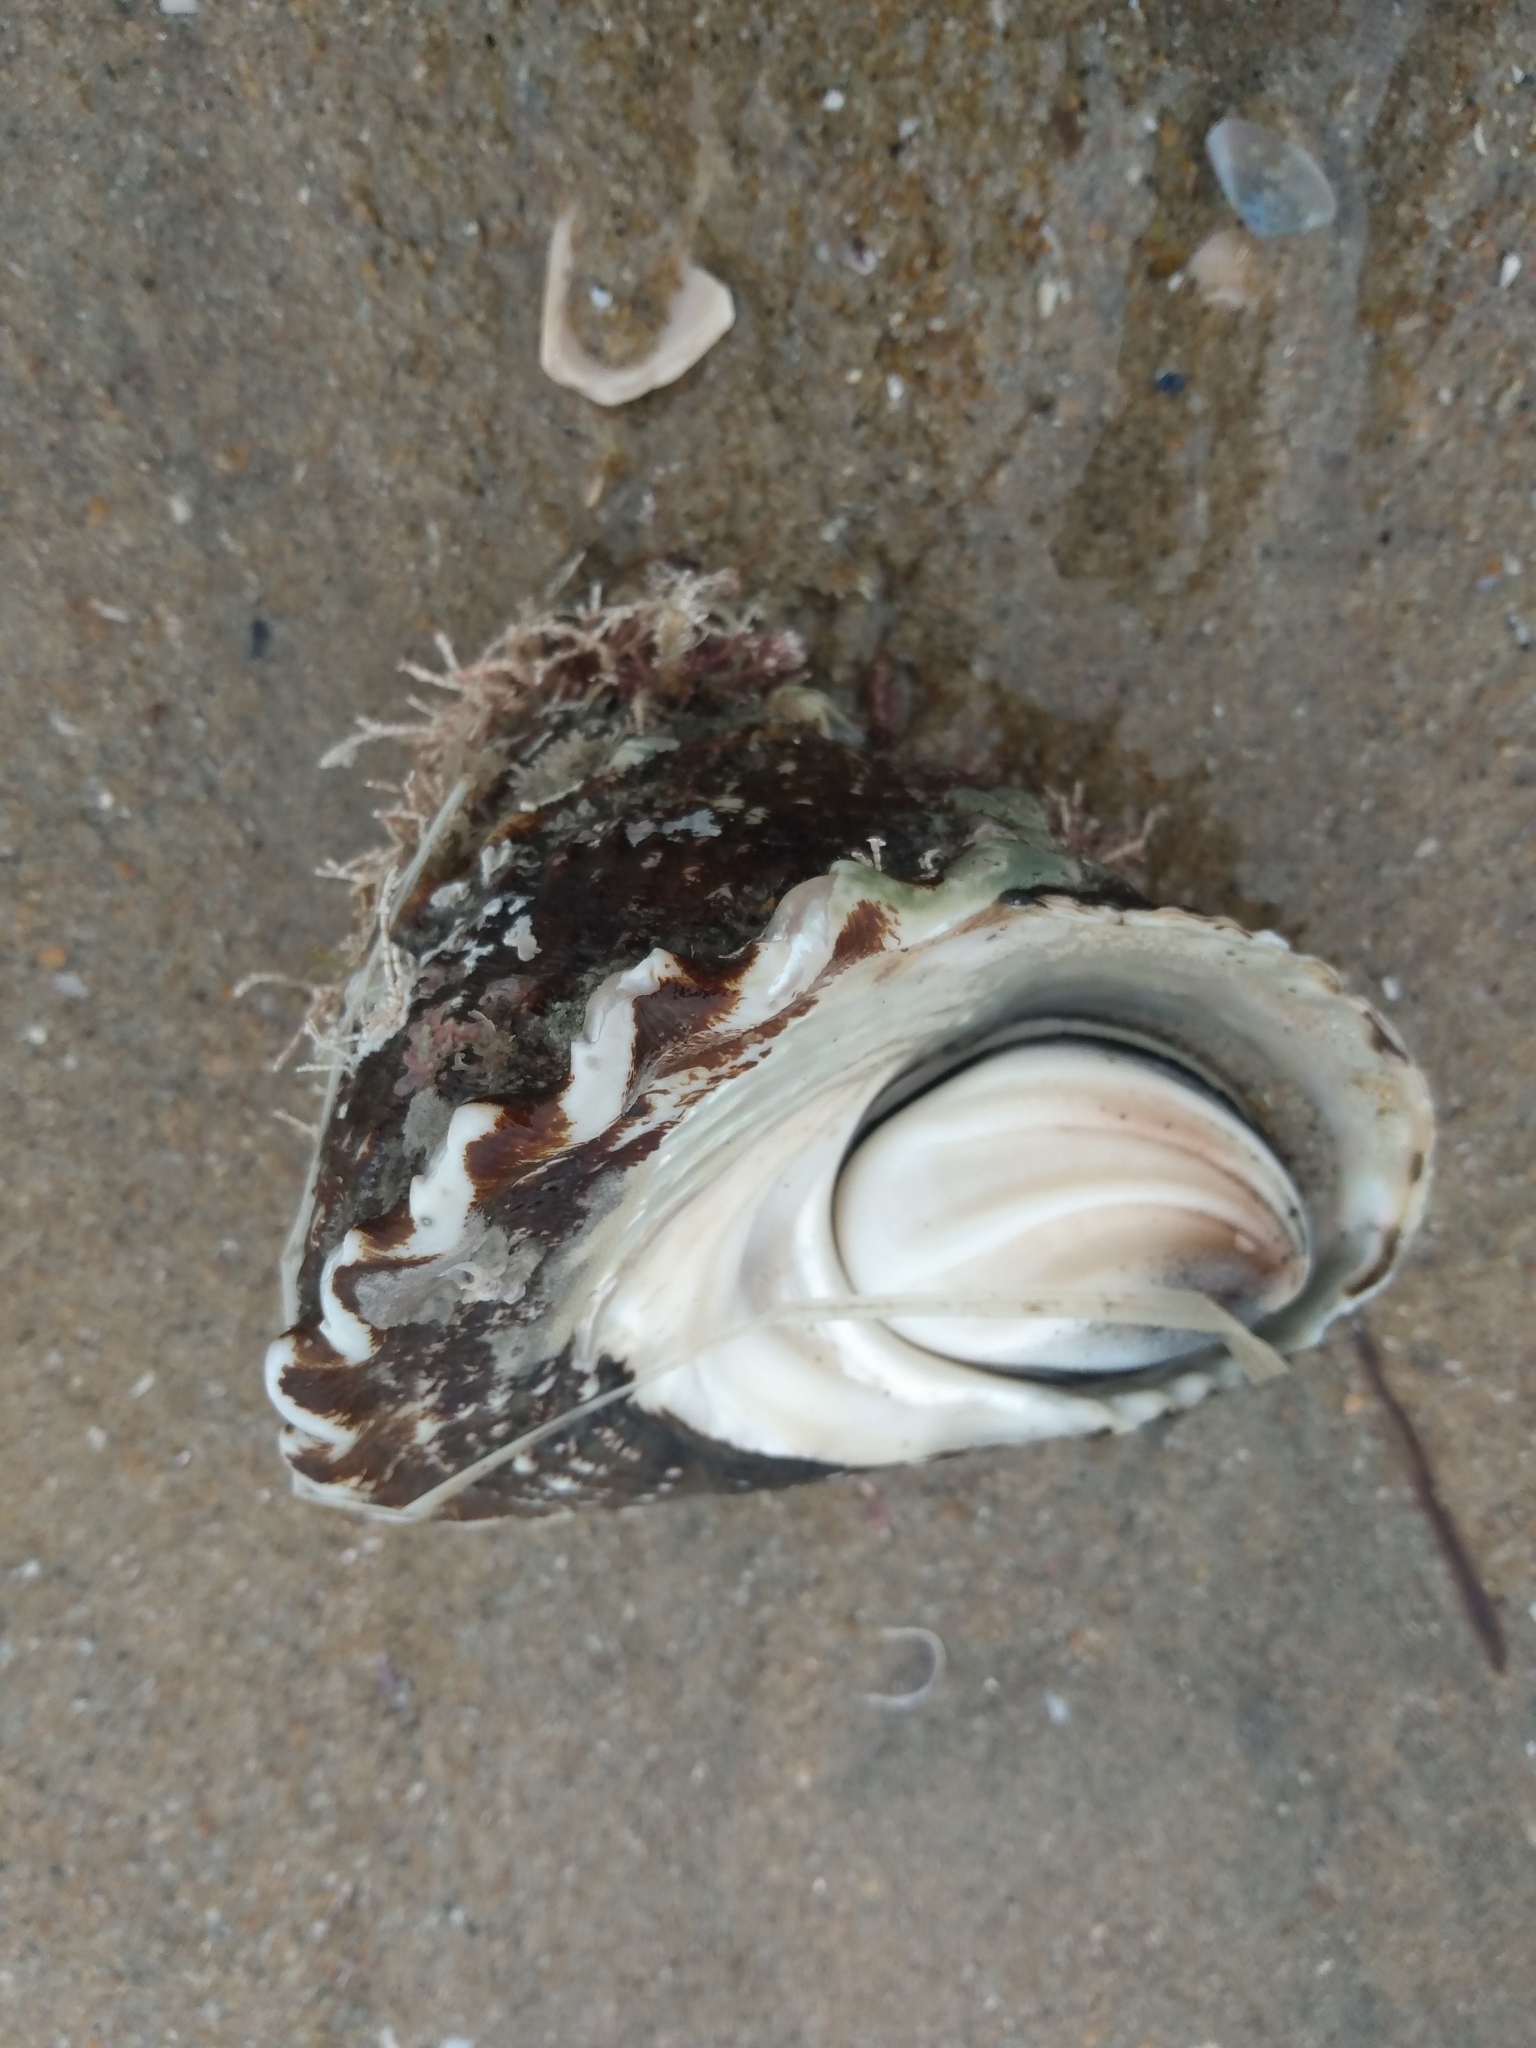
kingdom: Animalia
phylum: Mollusca
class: Gastropoda
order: Trochida
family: Turbinidae
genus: Megastraea
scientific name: Megastraea undosa
